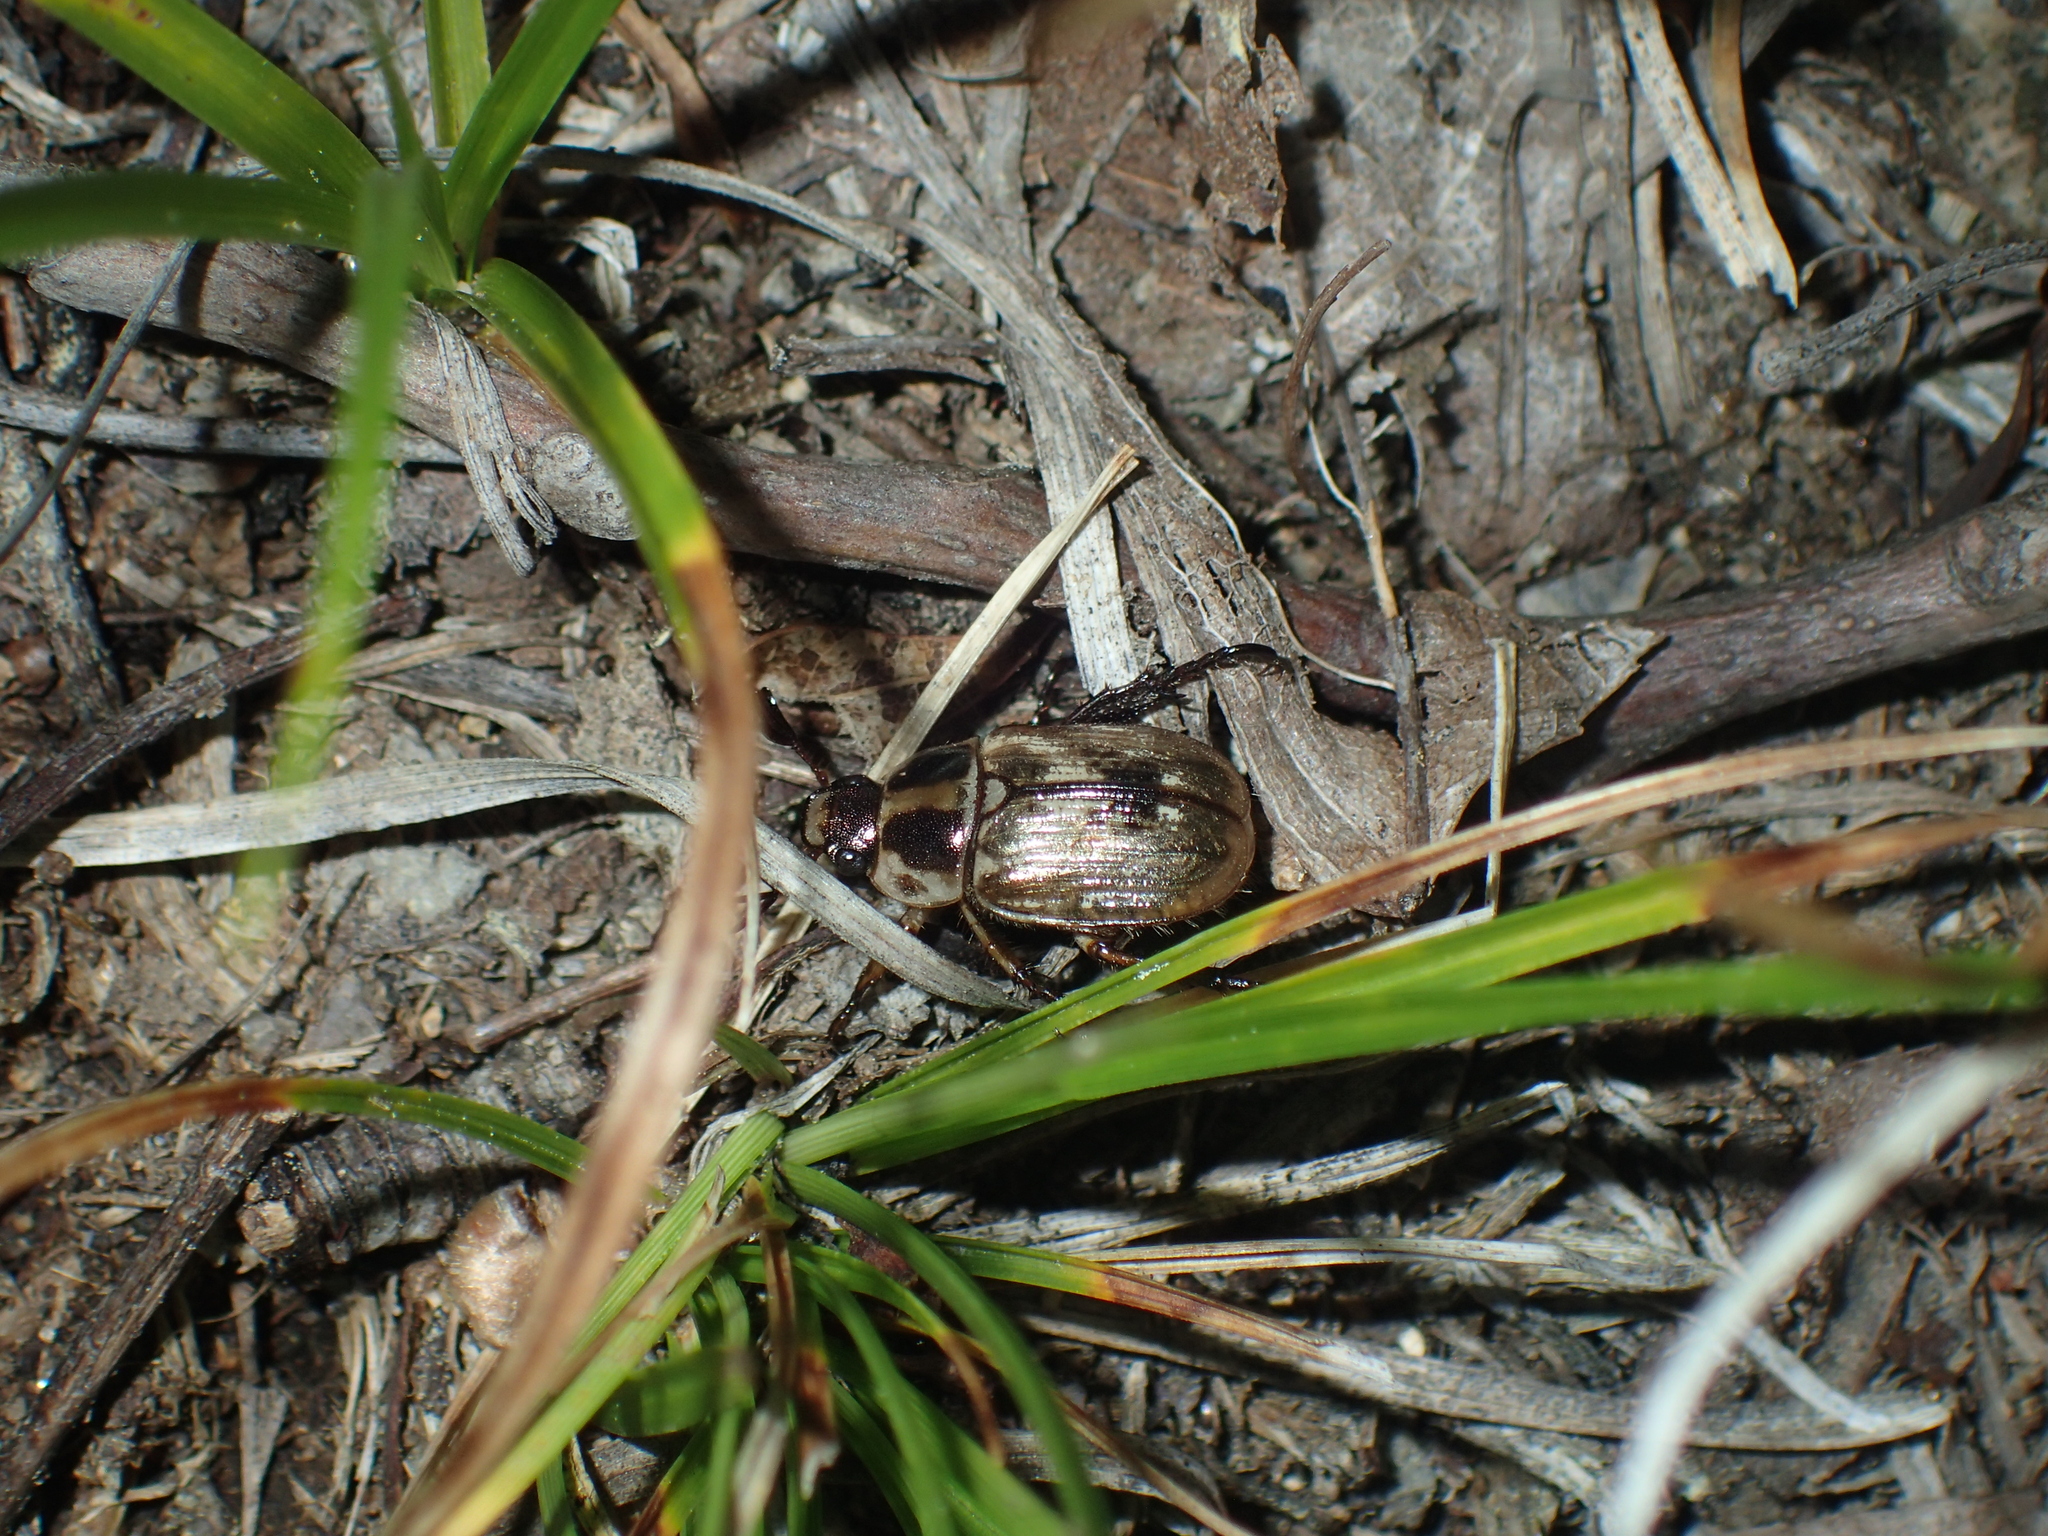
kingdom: Animalia
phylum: Arthropoda
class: Insecta
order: Coleoptera
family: Scarabaeidae
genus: Exomala
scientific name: Exomala orientalis
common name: Oriental beetle
